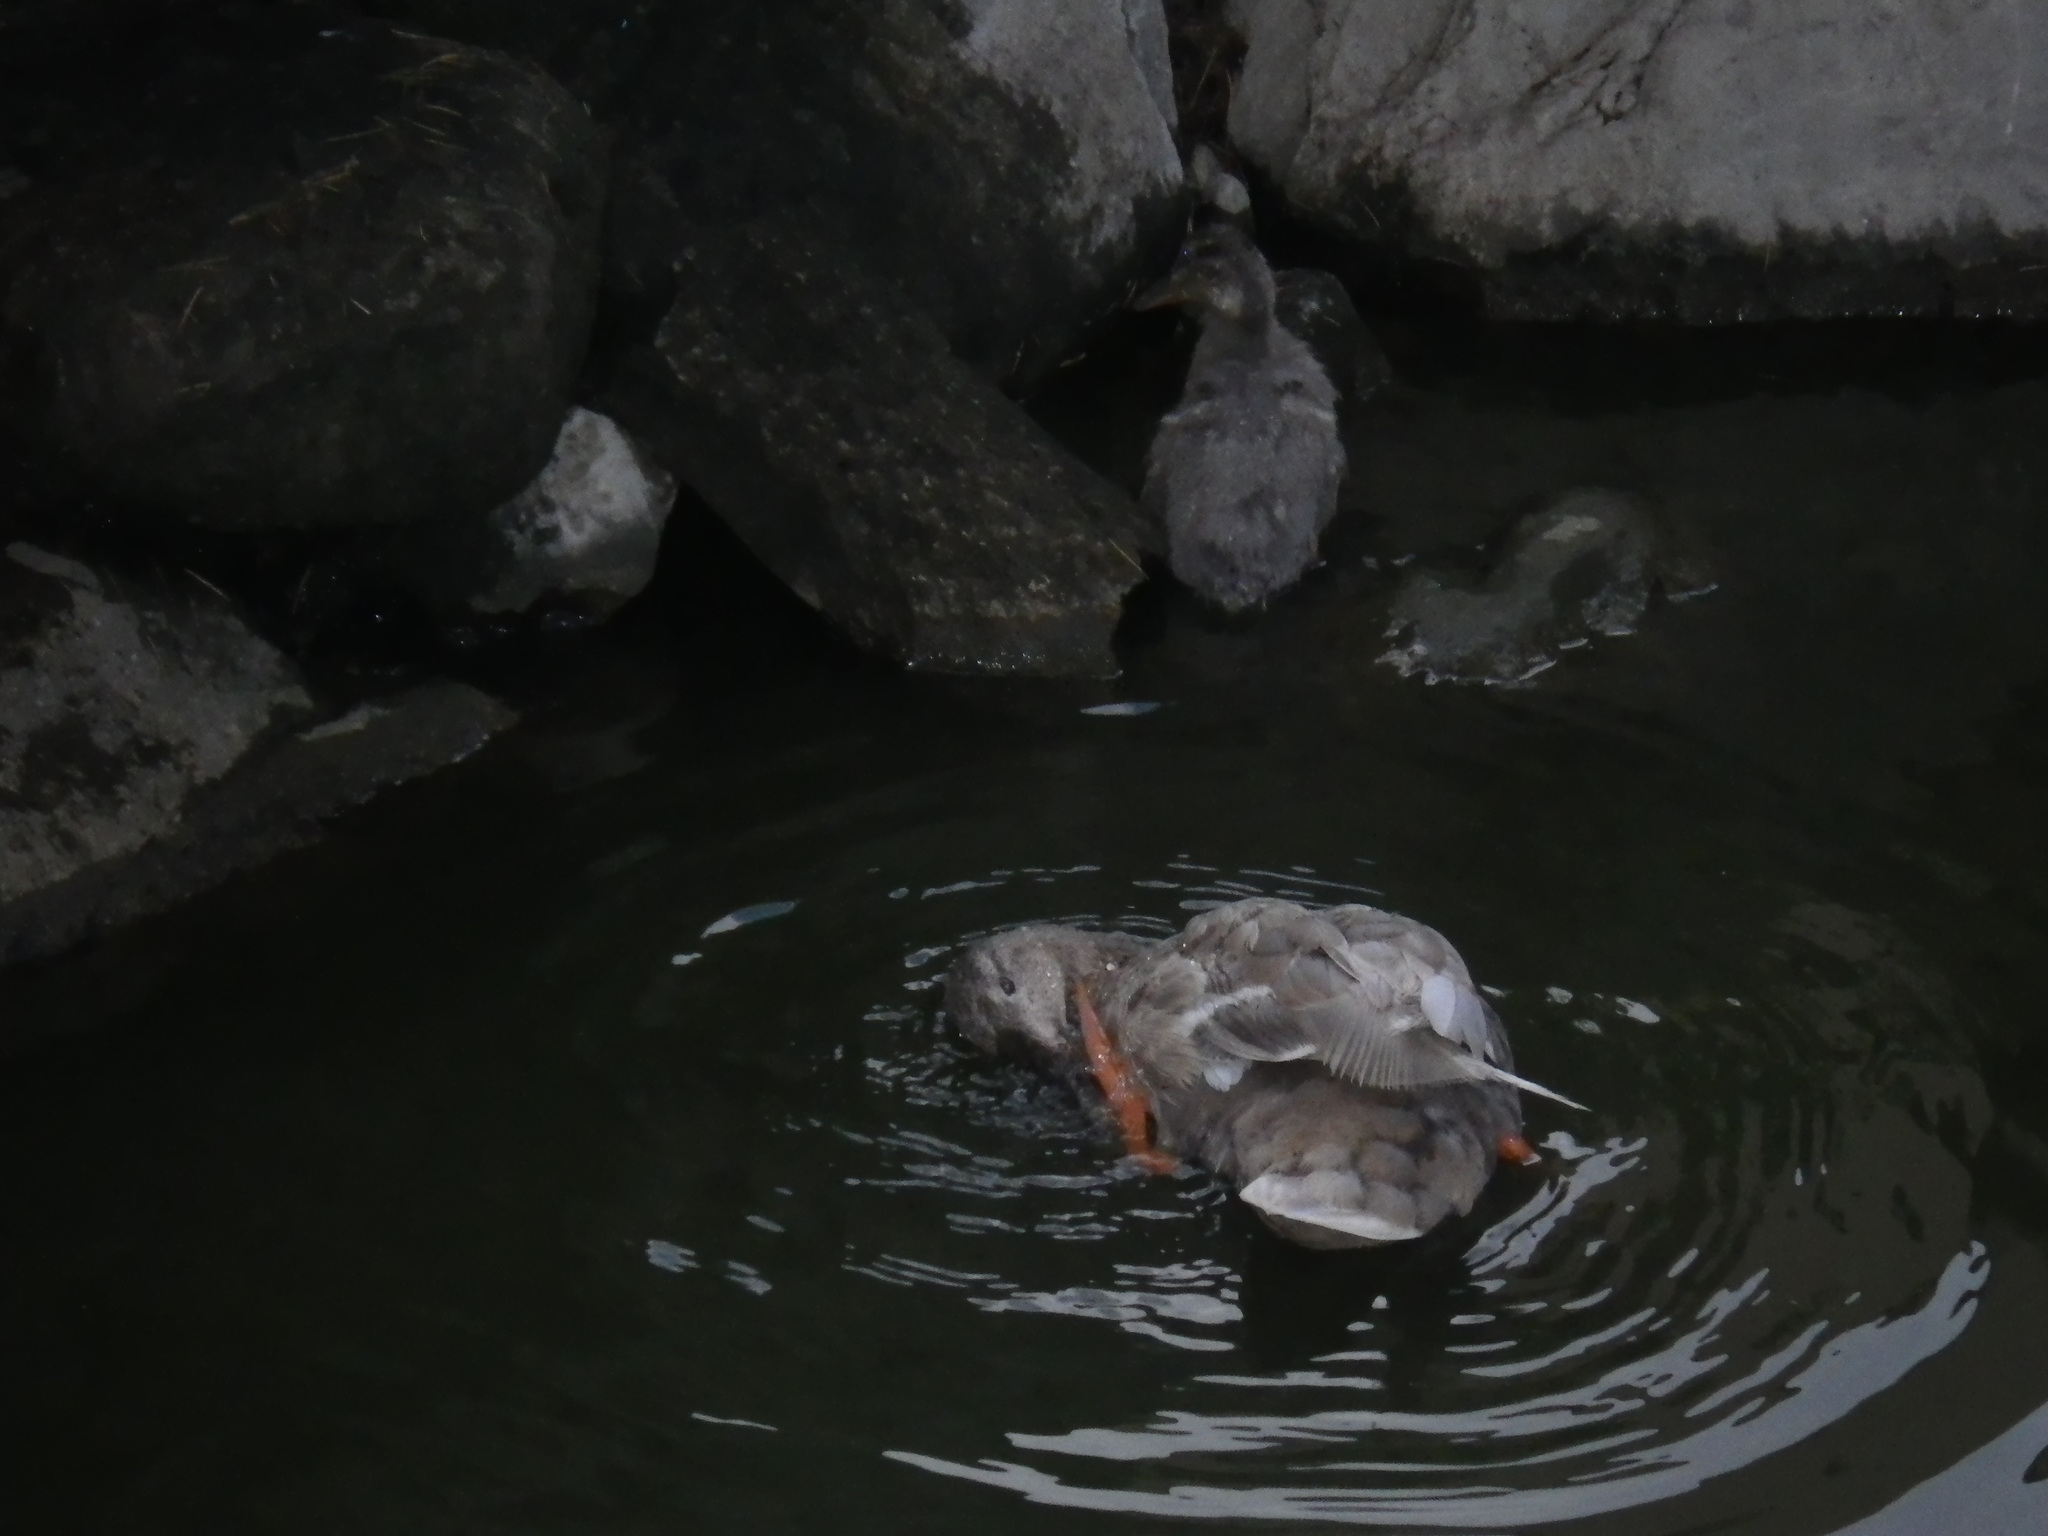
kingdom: Animalia
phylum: Chordata
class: Aves
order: Anseriformes
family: Anatidae
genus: Anas
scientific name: Anas platyrhynchos
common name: Mallard
